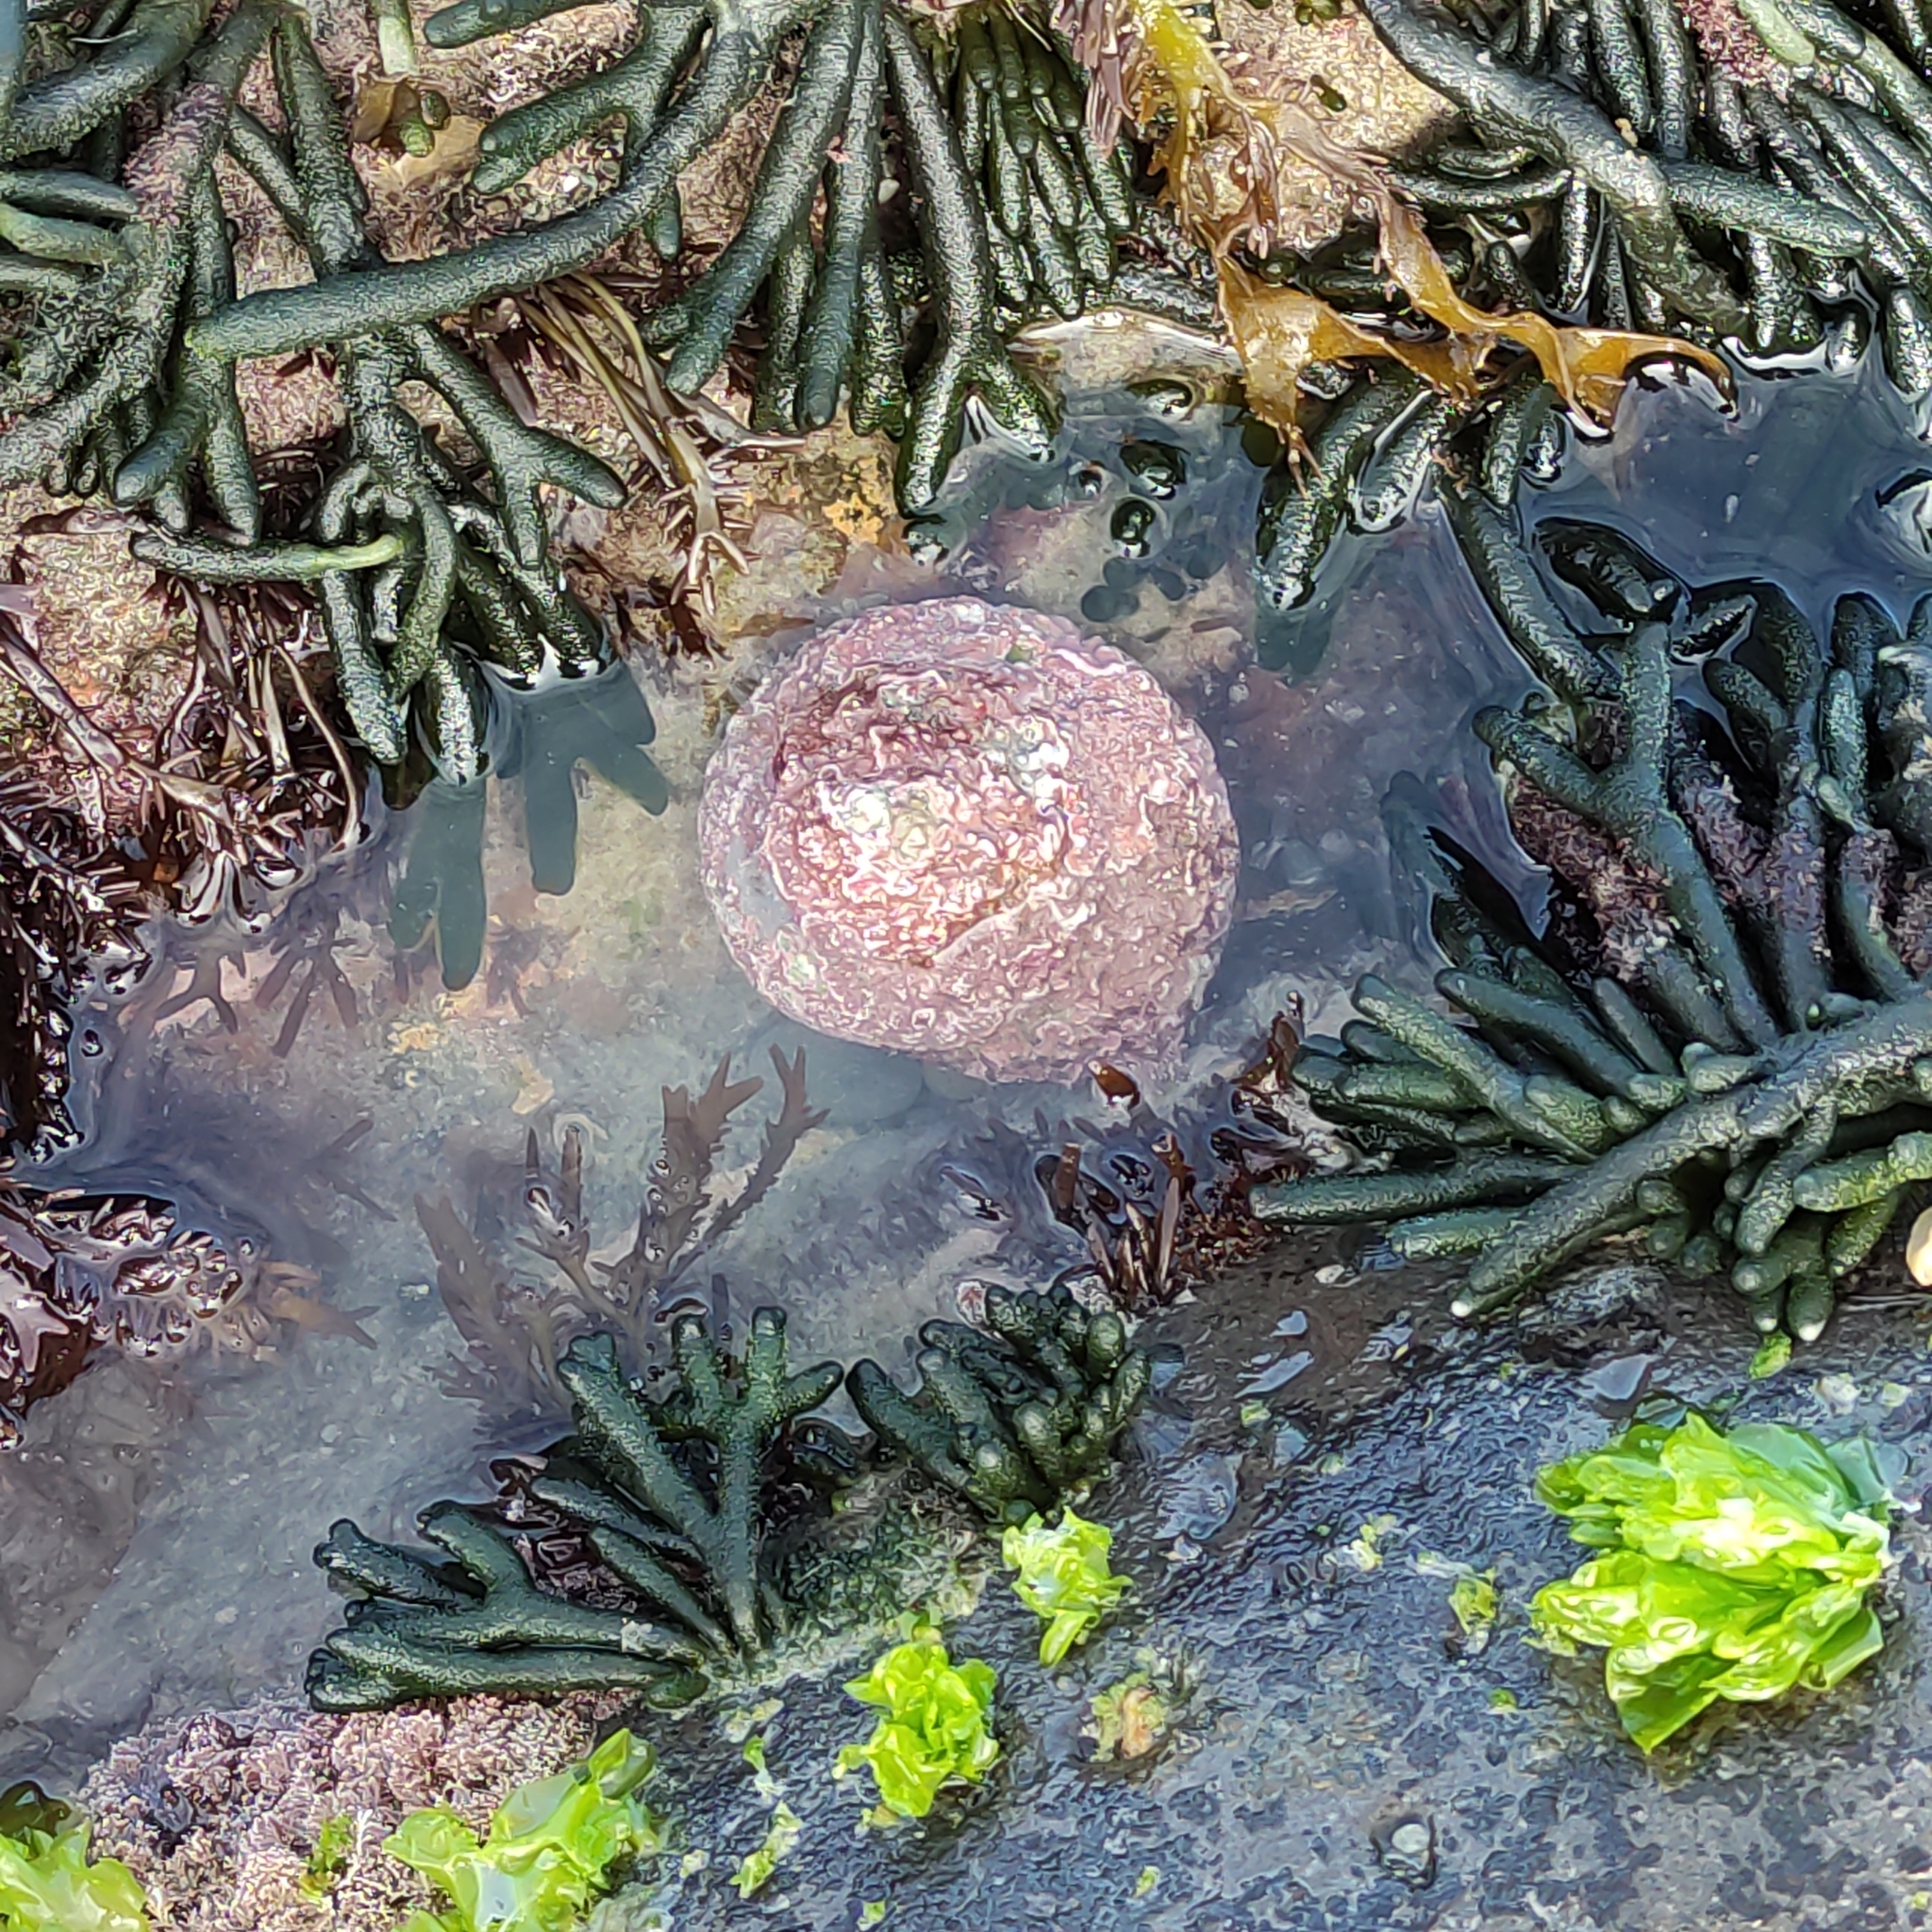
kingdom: Animalia
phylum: Mollusca
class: Gastropoda
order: Trochida
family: Turbinidae
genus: Cookia
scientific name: Cookia sulcata
